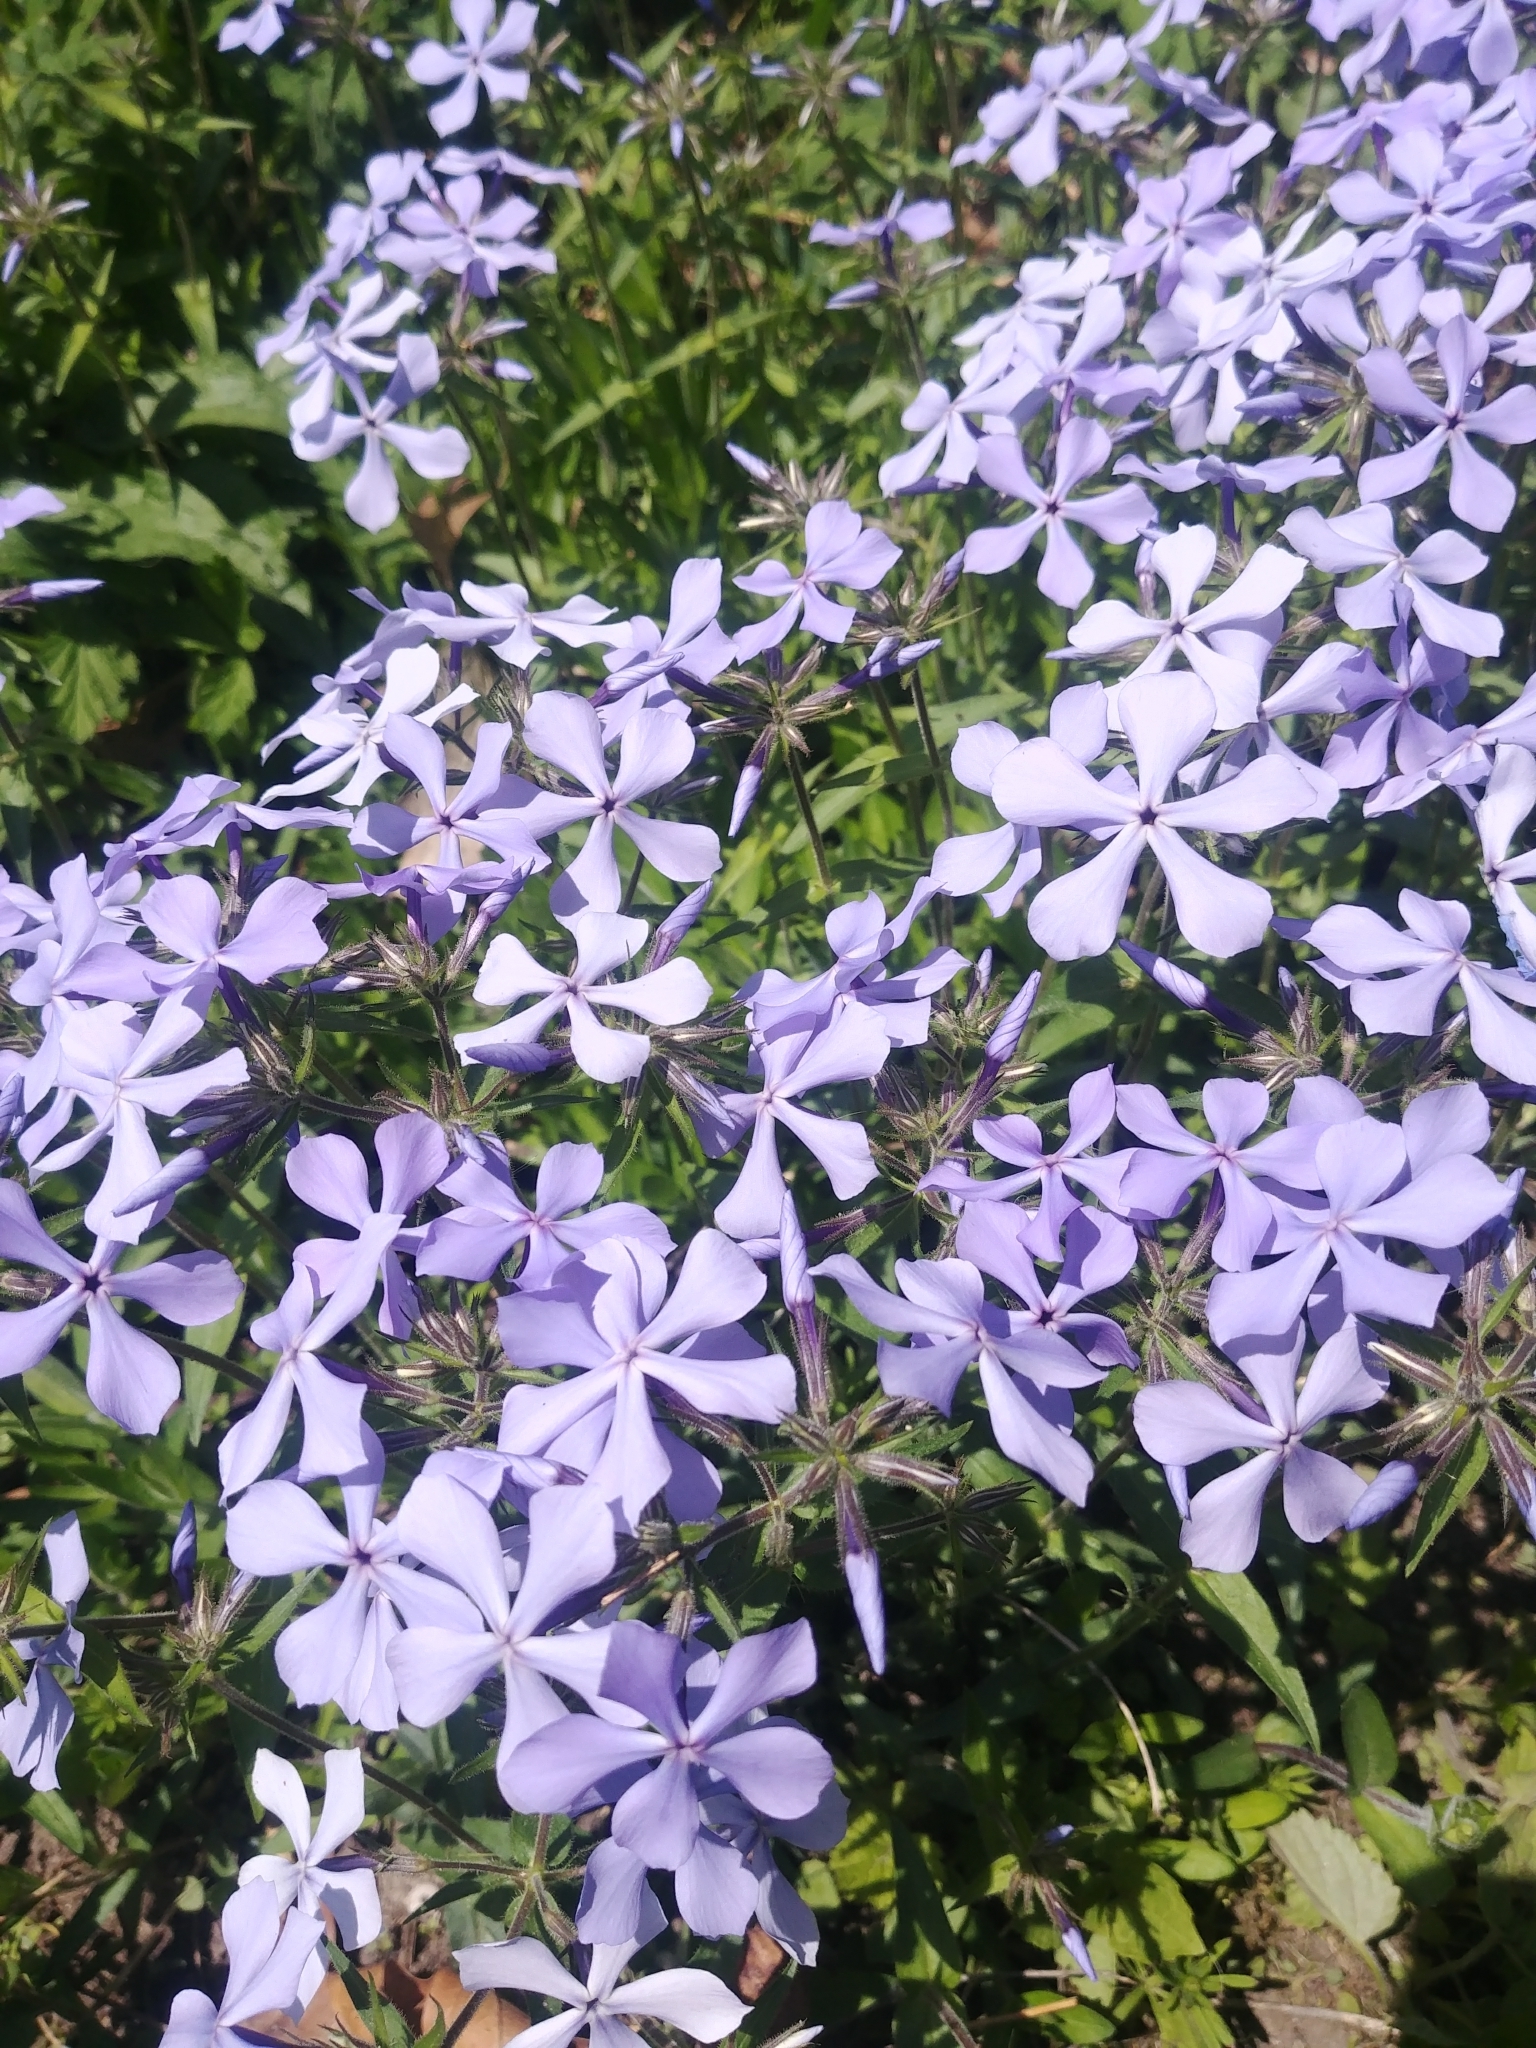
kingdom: Plantae
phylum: Tracheophyta
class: Magnoliopsida
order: Ericales
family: Polemoniaceae
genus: Phlox
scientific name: Phlox divaricata
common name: Blue phlox
